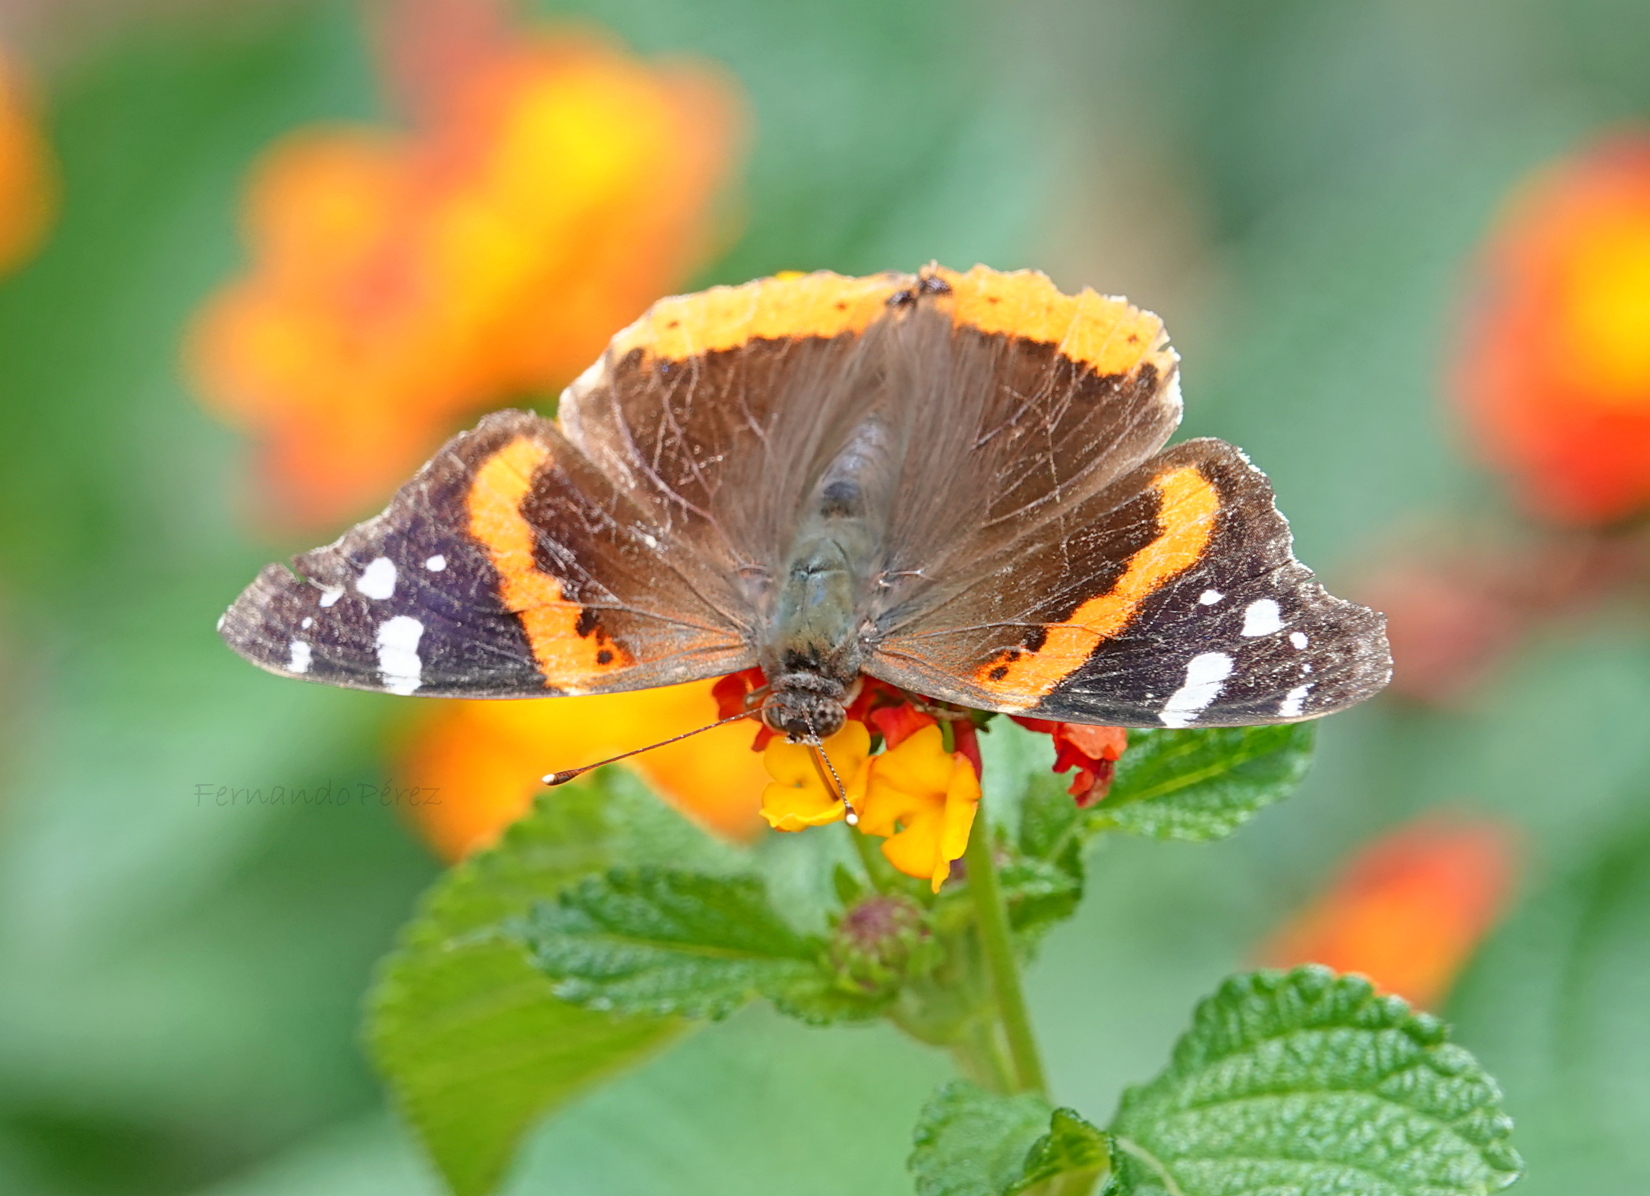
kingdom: Animalia
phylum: Arthropoda
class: Insecta
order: Lepidoptera
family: Nymphalidae
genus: Vanessa
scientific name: Vanessa atalanta
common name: Red admiral
